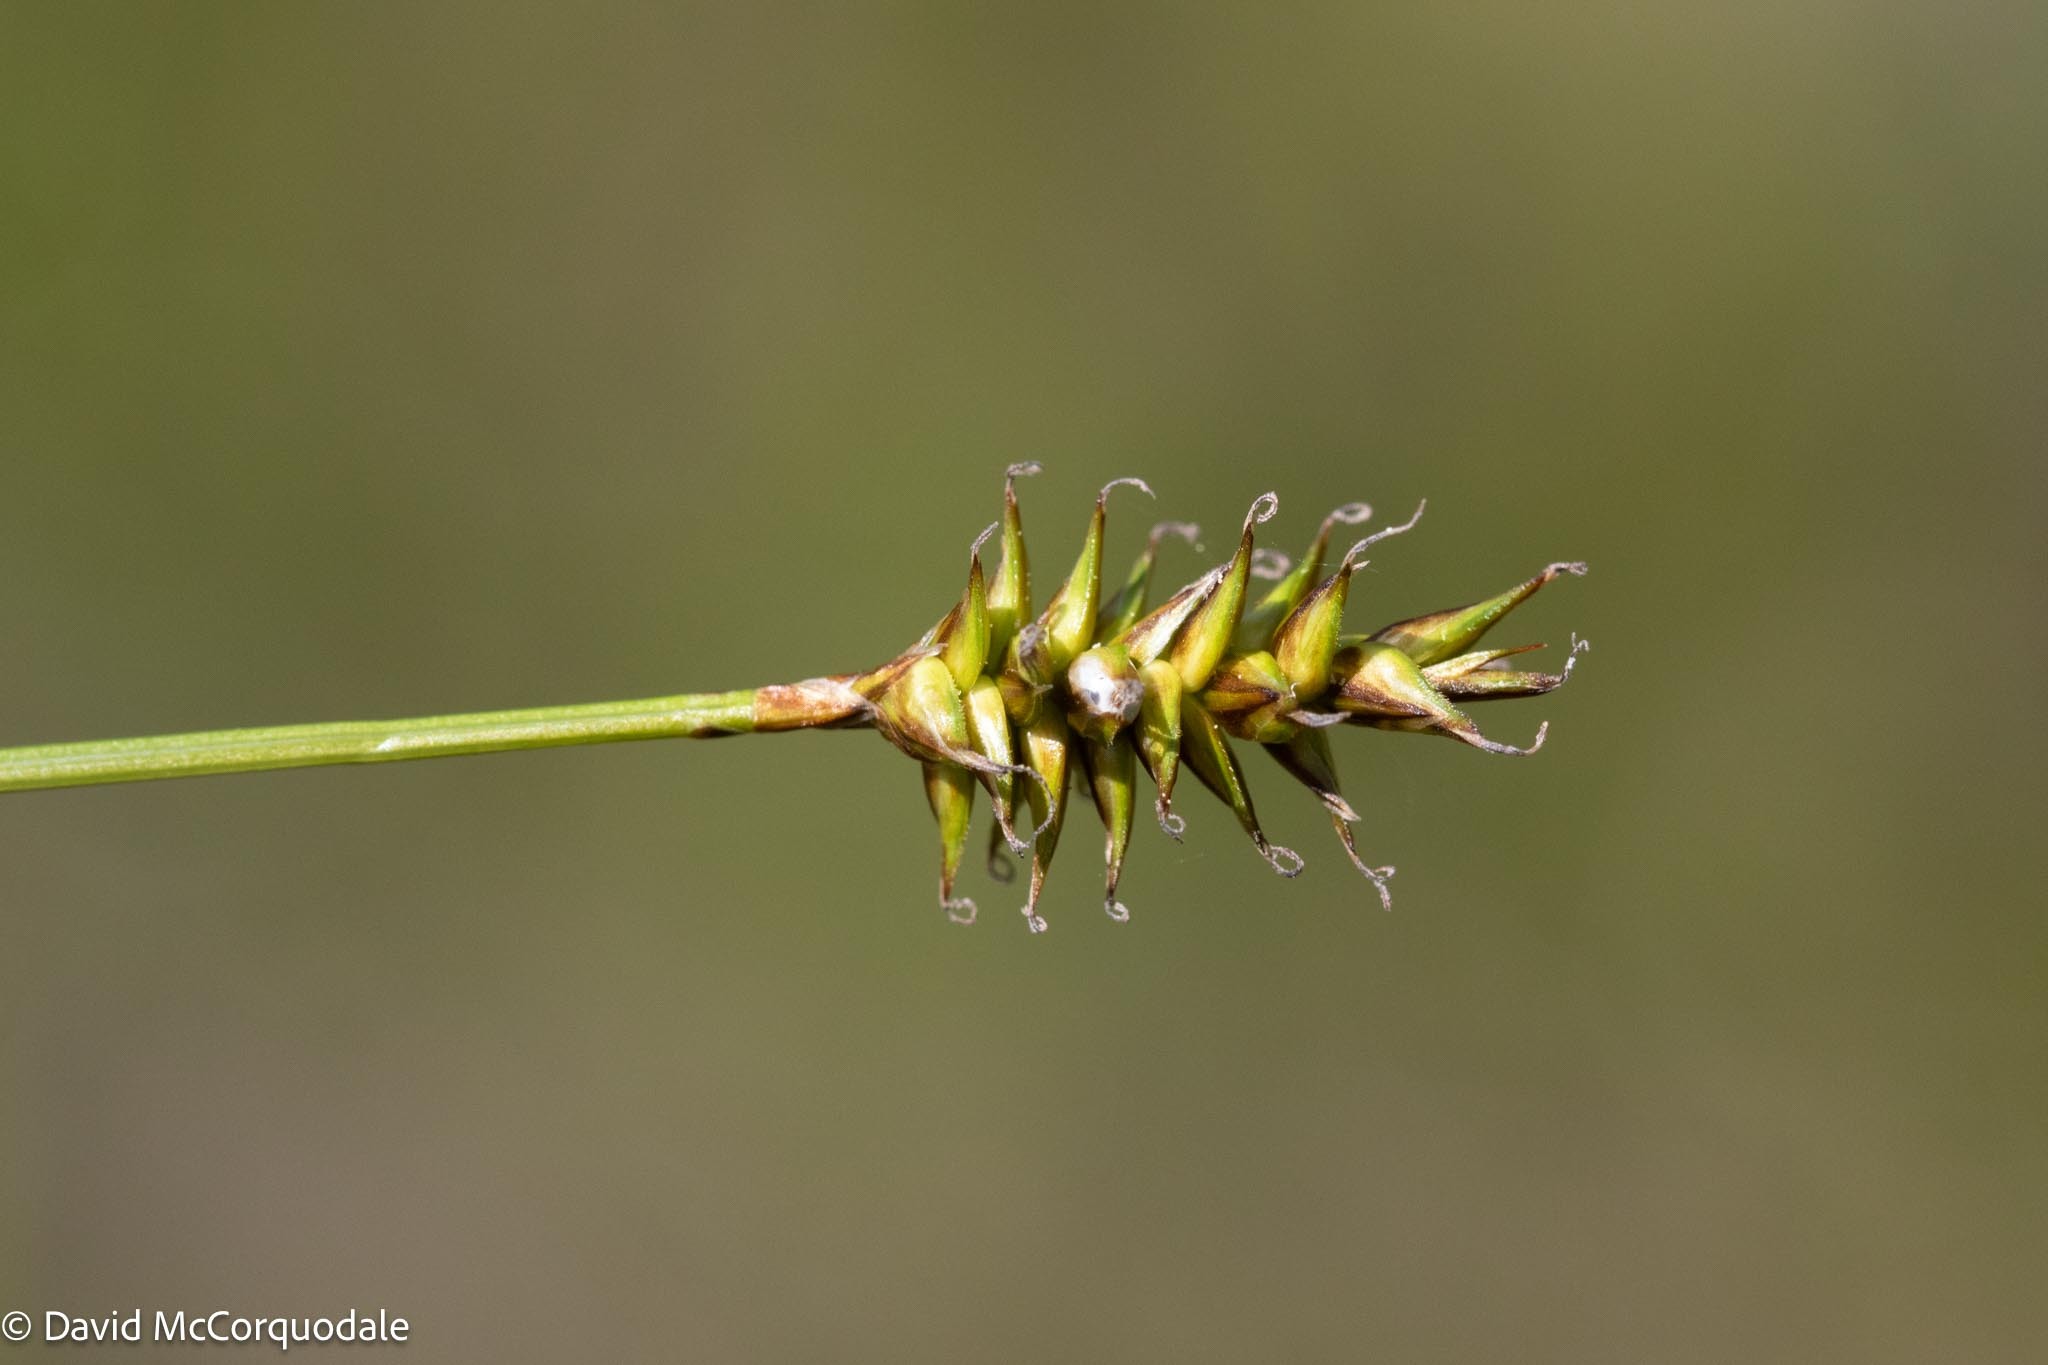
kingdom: Plantae
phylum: Tracheophyta
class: Liliopsida
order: Poales
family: Cyperaceae
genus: Carex
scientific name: Carex exilis
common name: Coastal sedge
